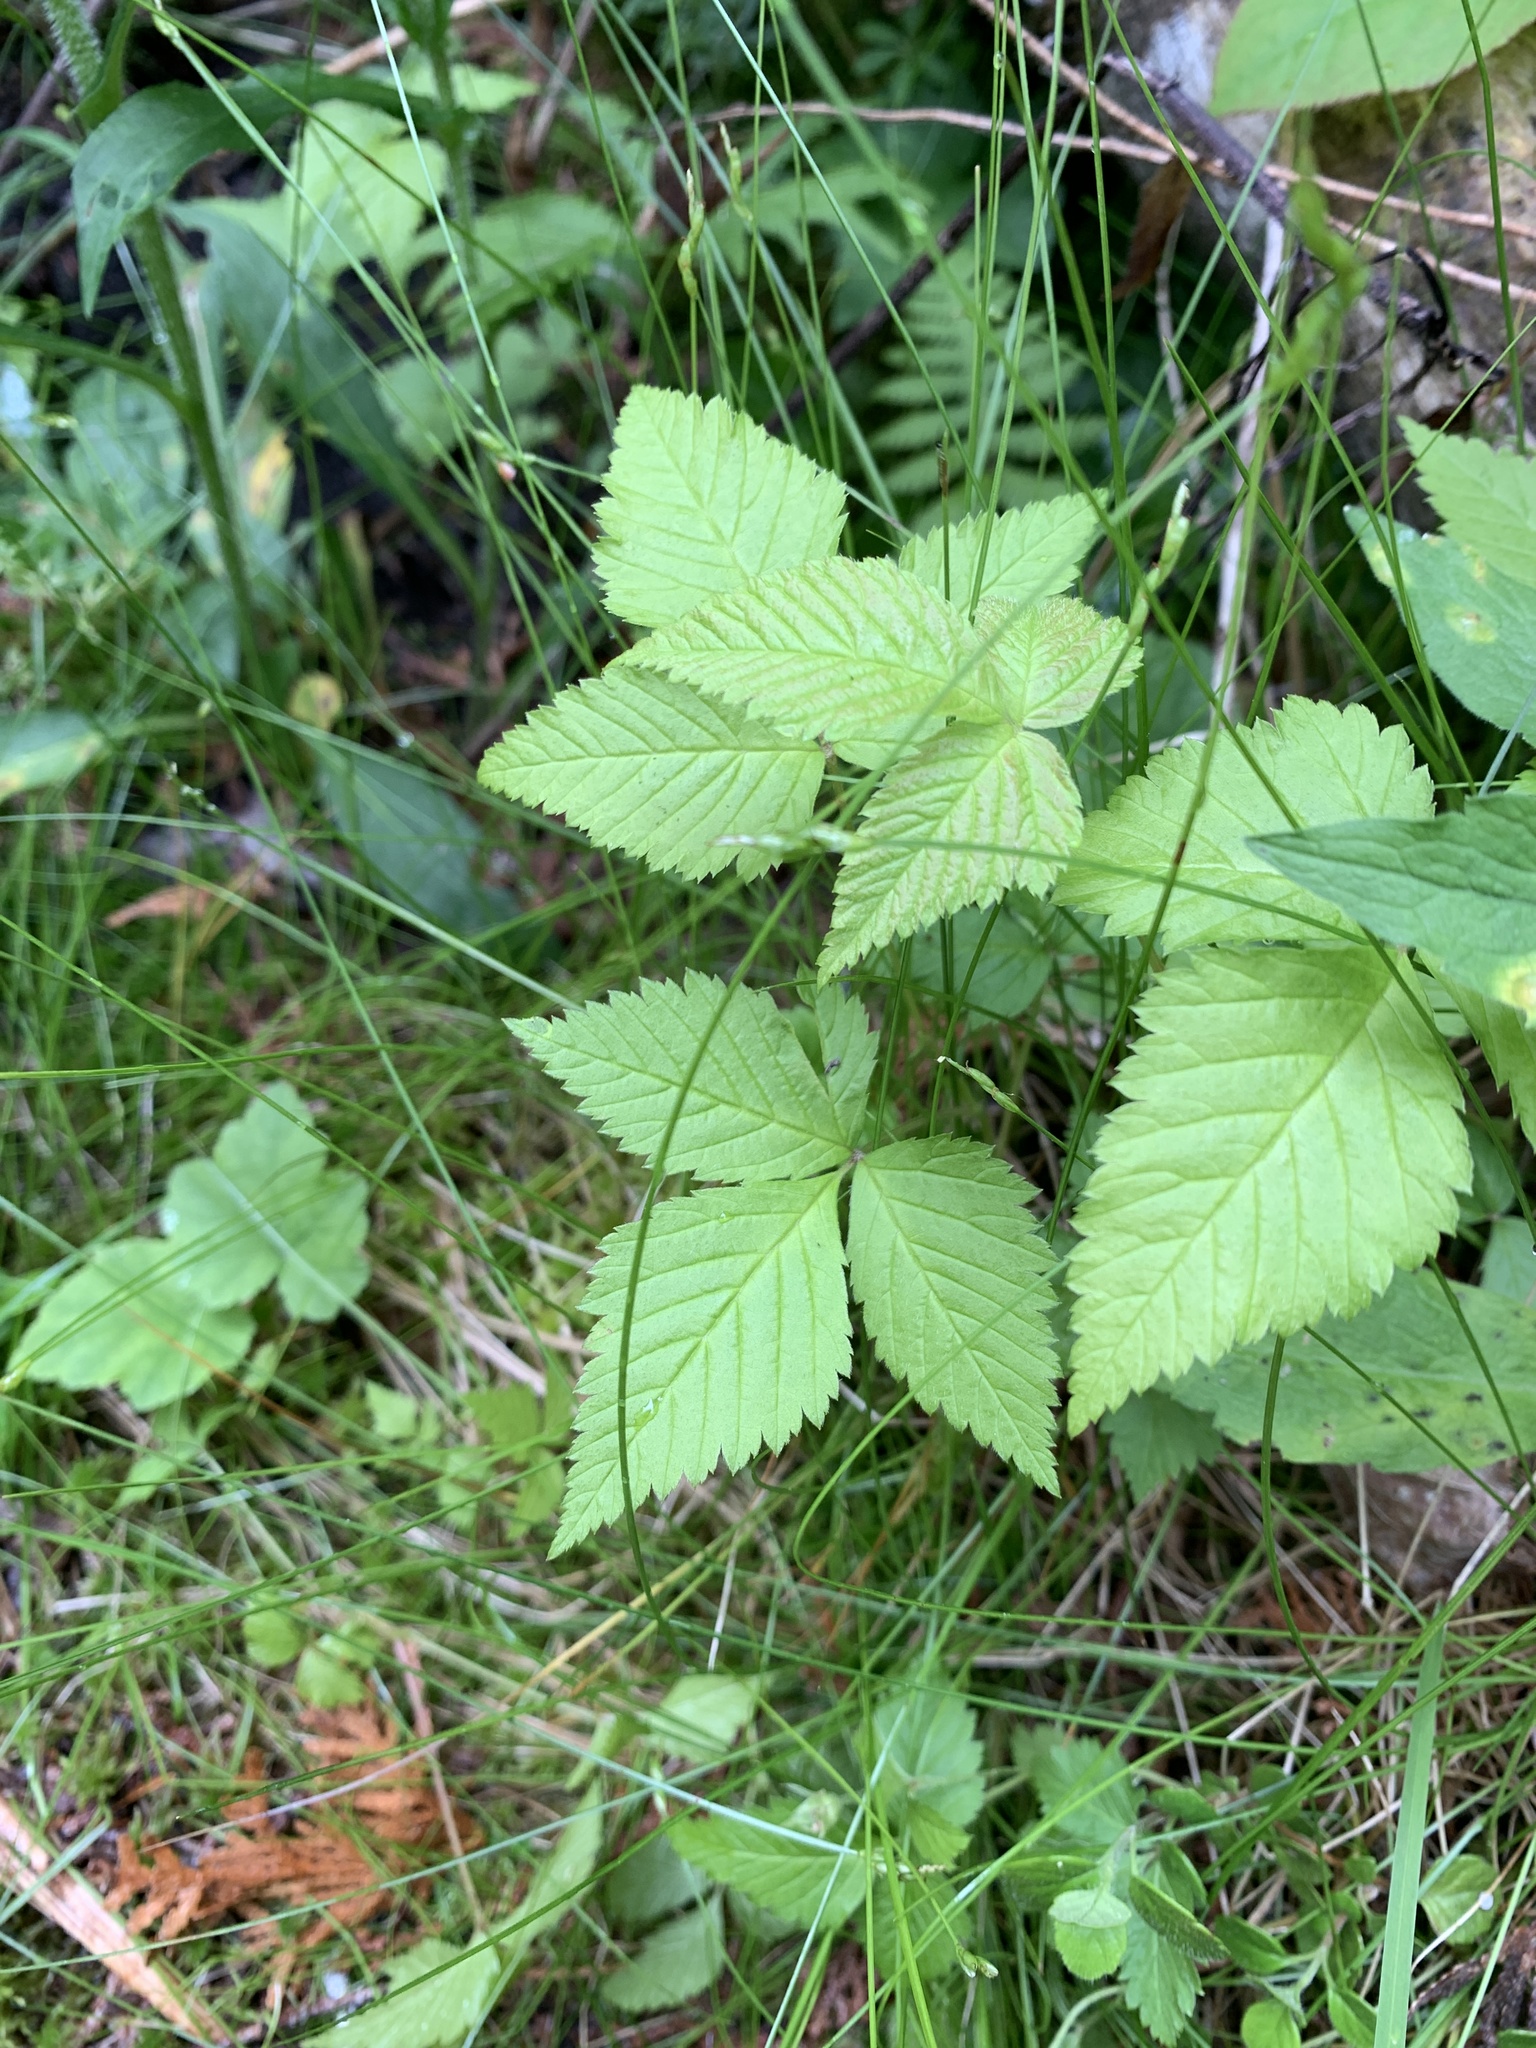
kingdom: Plantae
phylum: Tracheophyta
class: Magnoliopsida
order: Rosales
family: Rosaceae
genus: Rubus
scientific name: Rubus pubescens
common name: Dwarf raspberry
